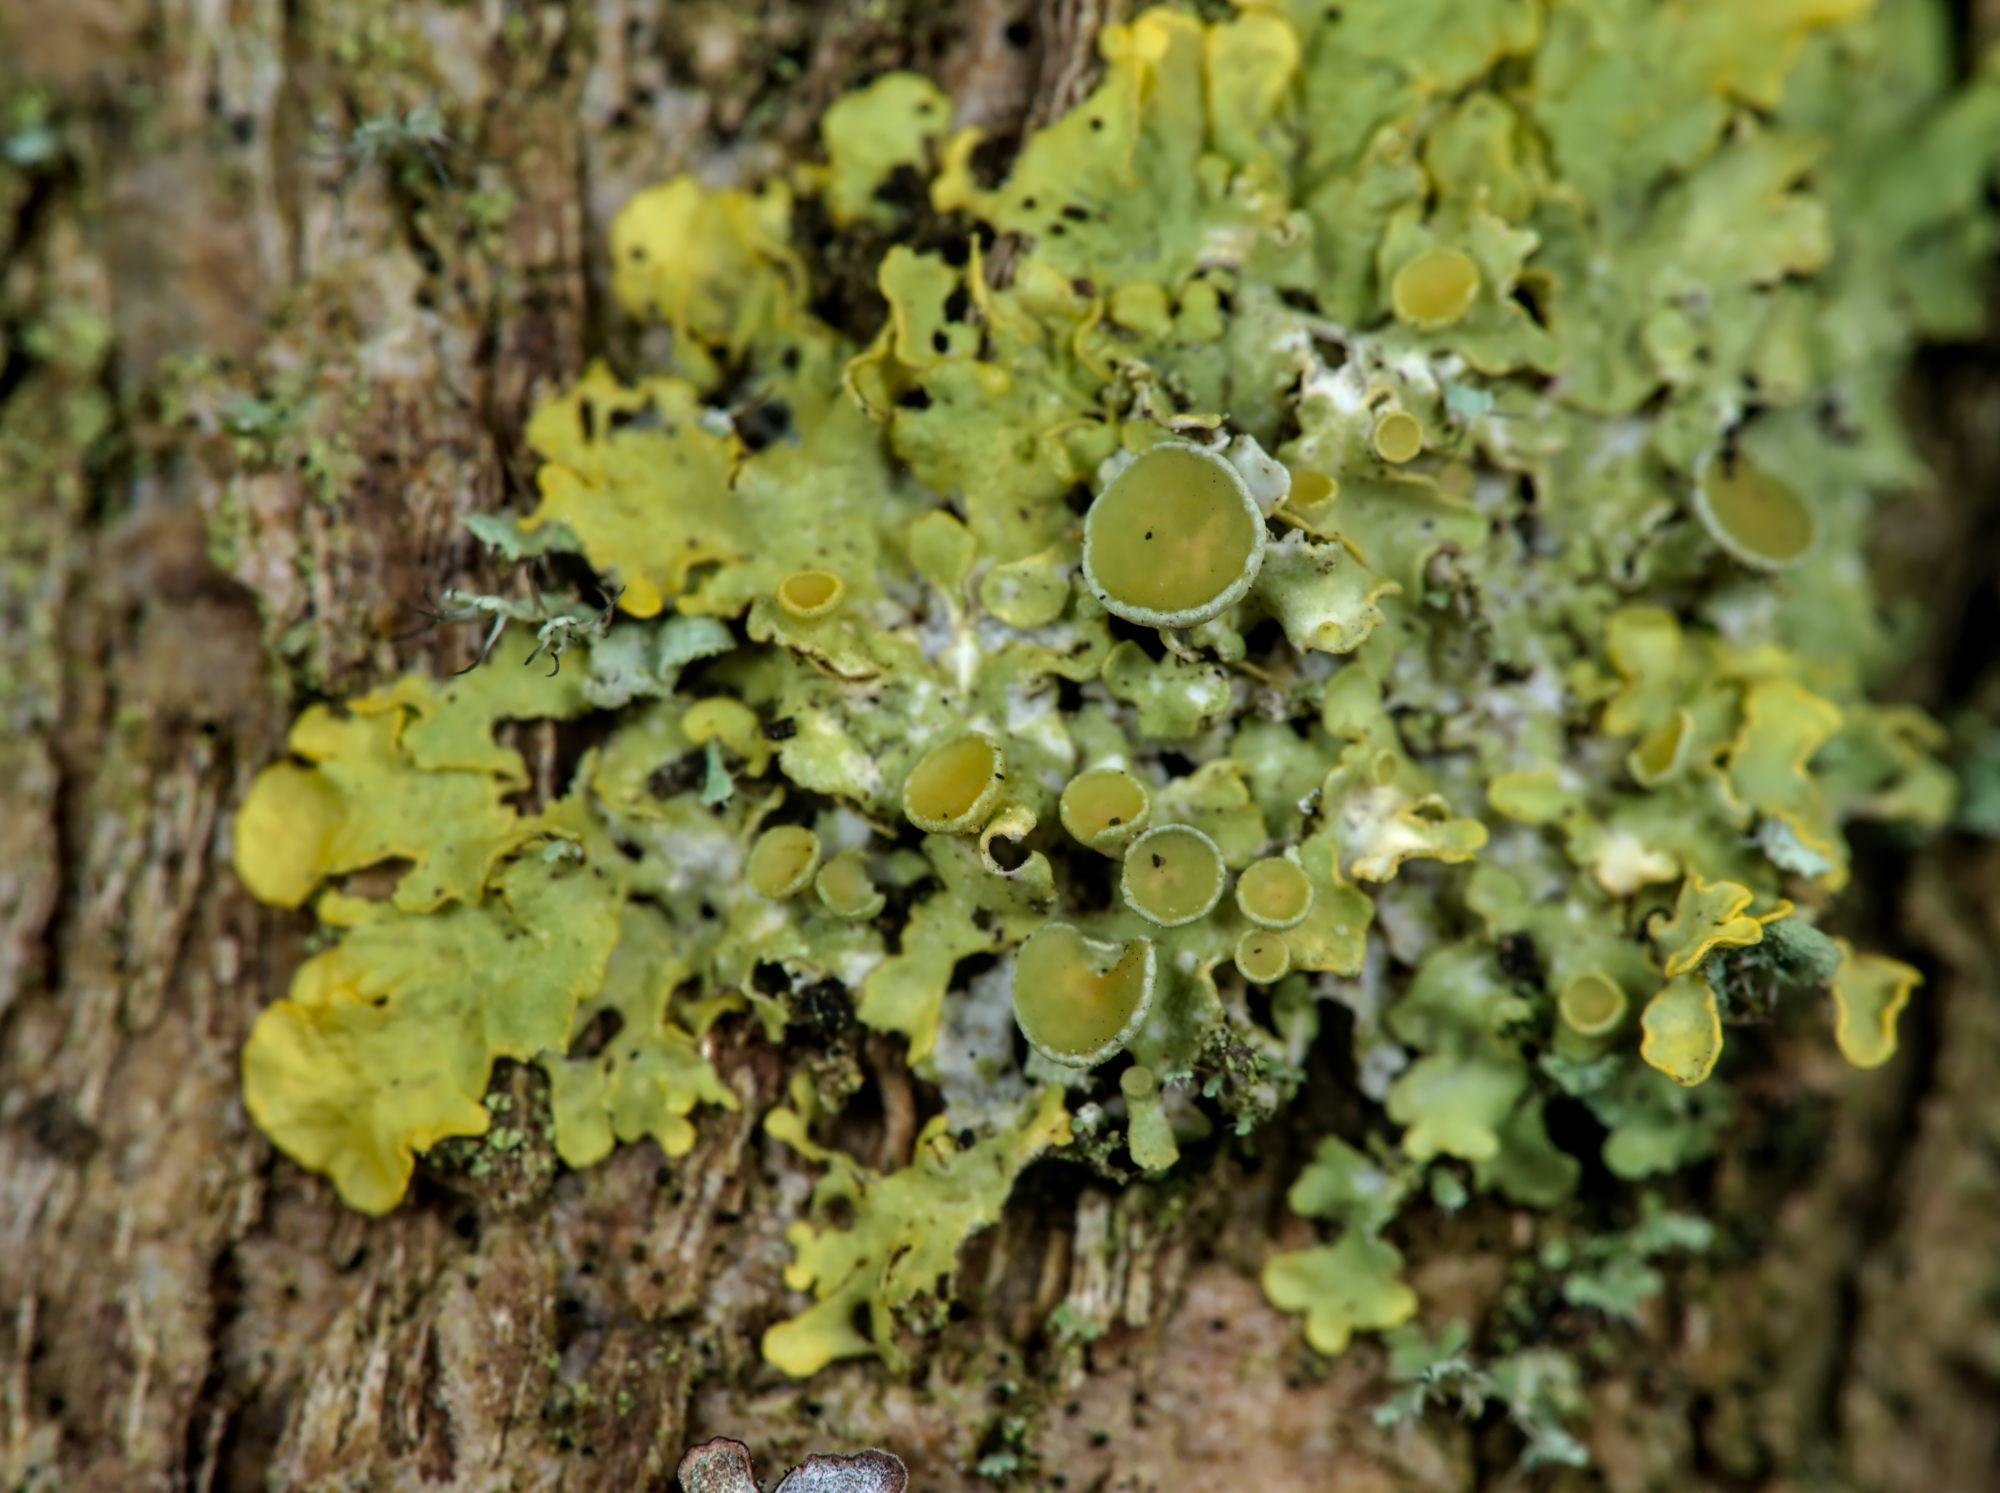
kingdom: Fungi
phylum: Ascomycota
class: Lecanoromycetes
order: Teloschistales
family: Teloschistaceae
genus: Xanthoria
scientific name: Xanthoria parietina
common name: Common orange lichen
